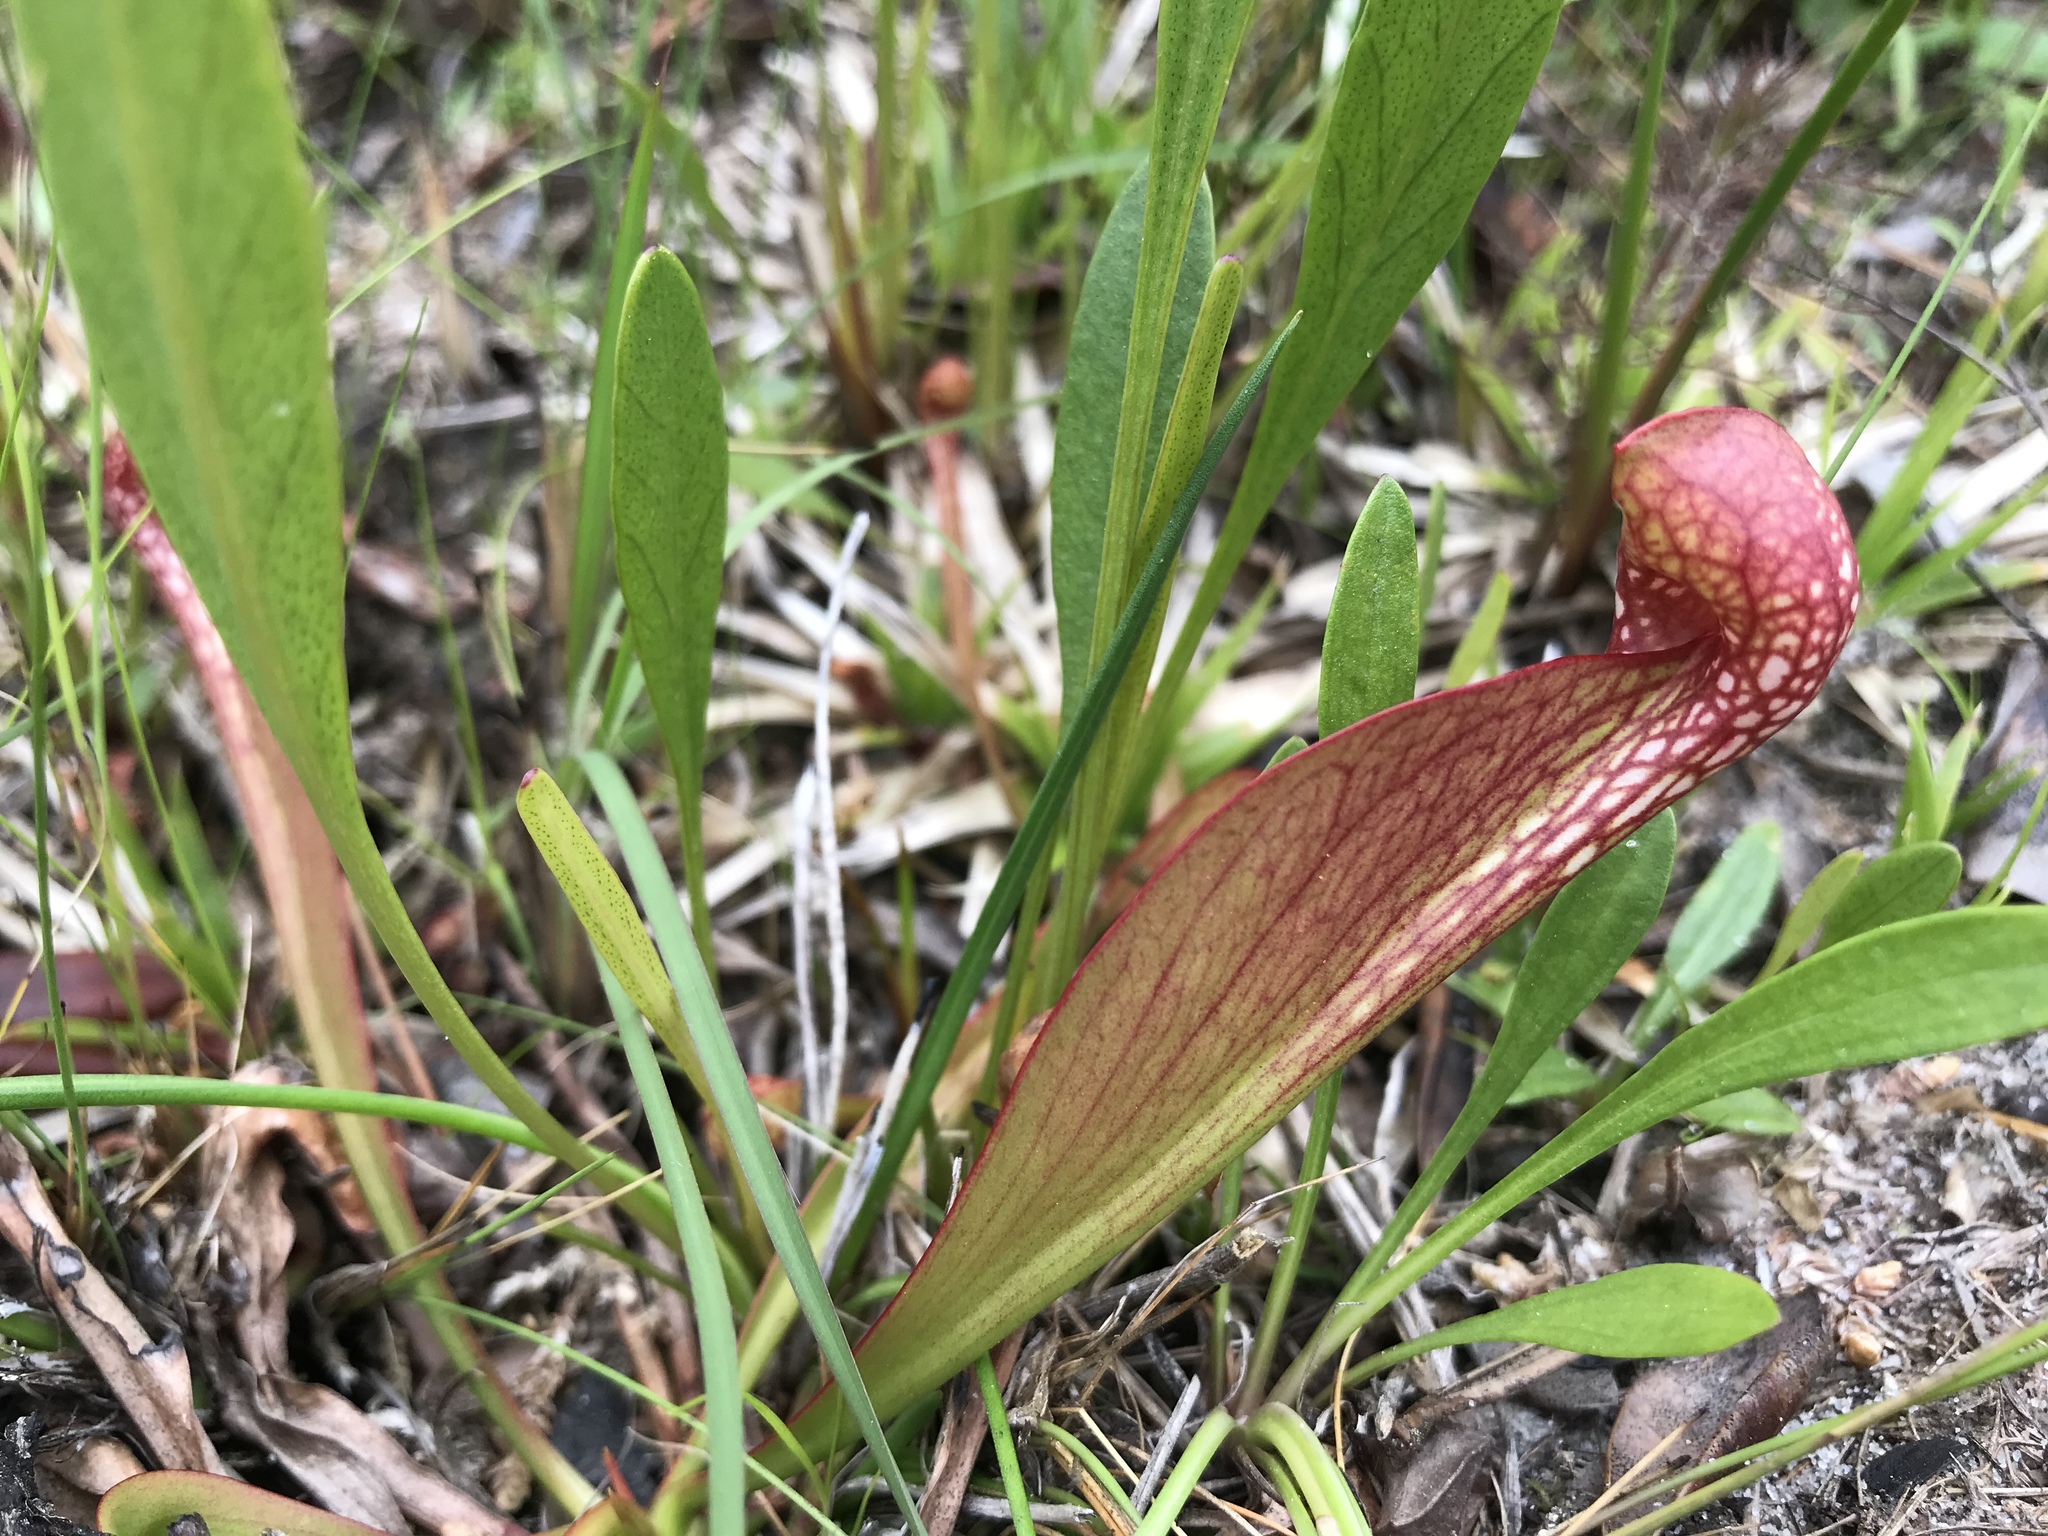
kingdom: Plantae
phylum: Tracheophyta
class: Magnoliopsida
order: Ericales
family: Sarraceniaceae
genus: Sarracenia
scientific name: Sarracenia psittacina
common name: Parrot pitcherplant
